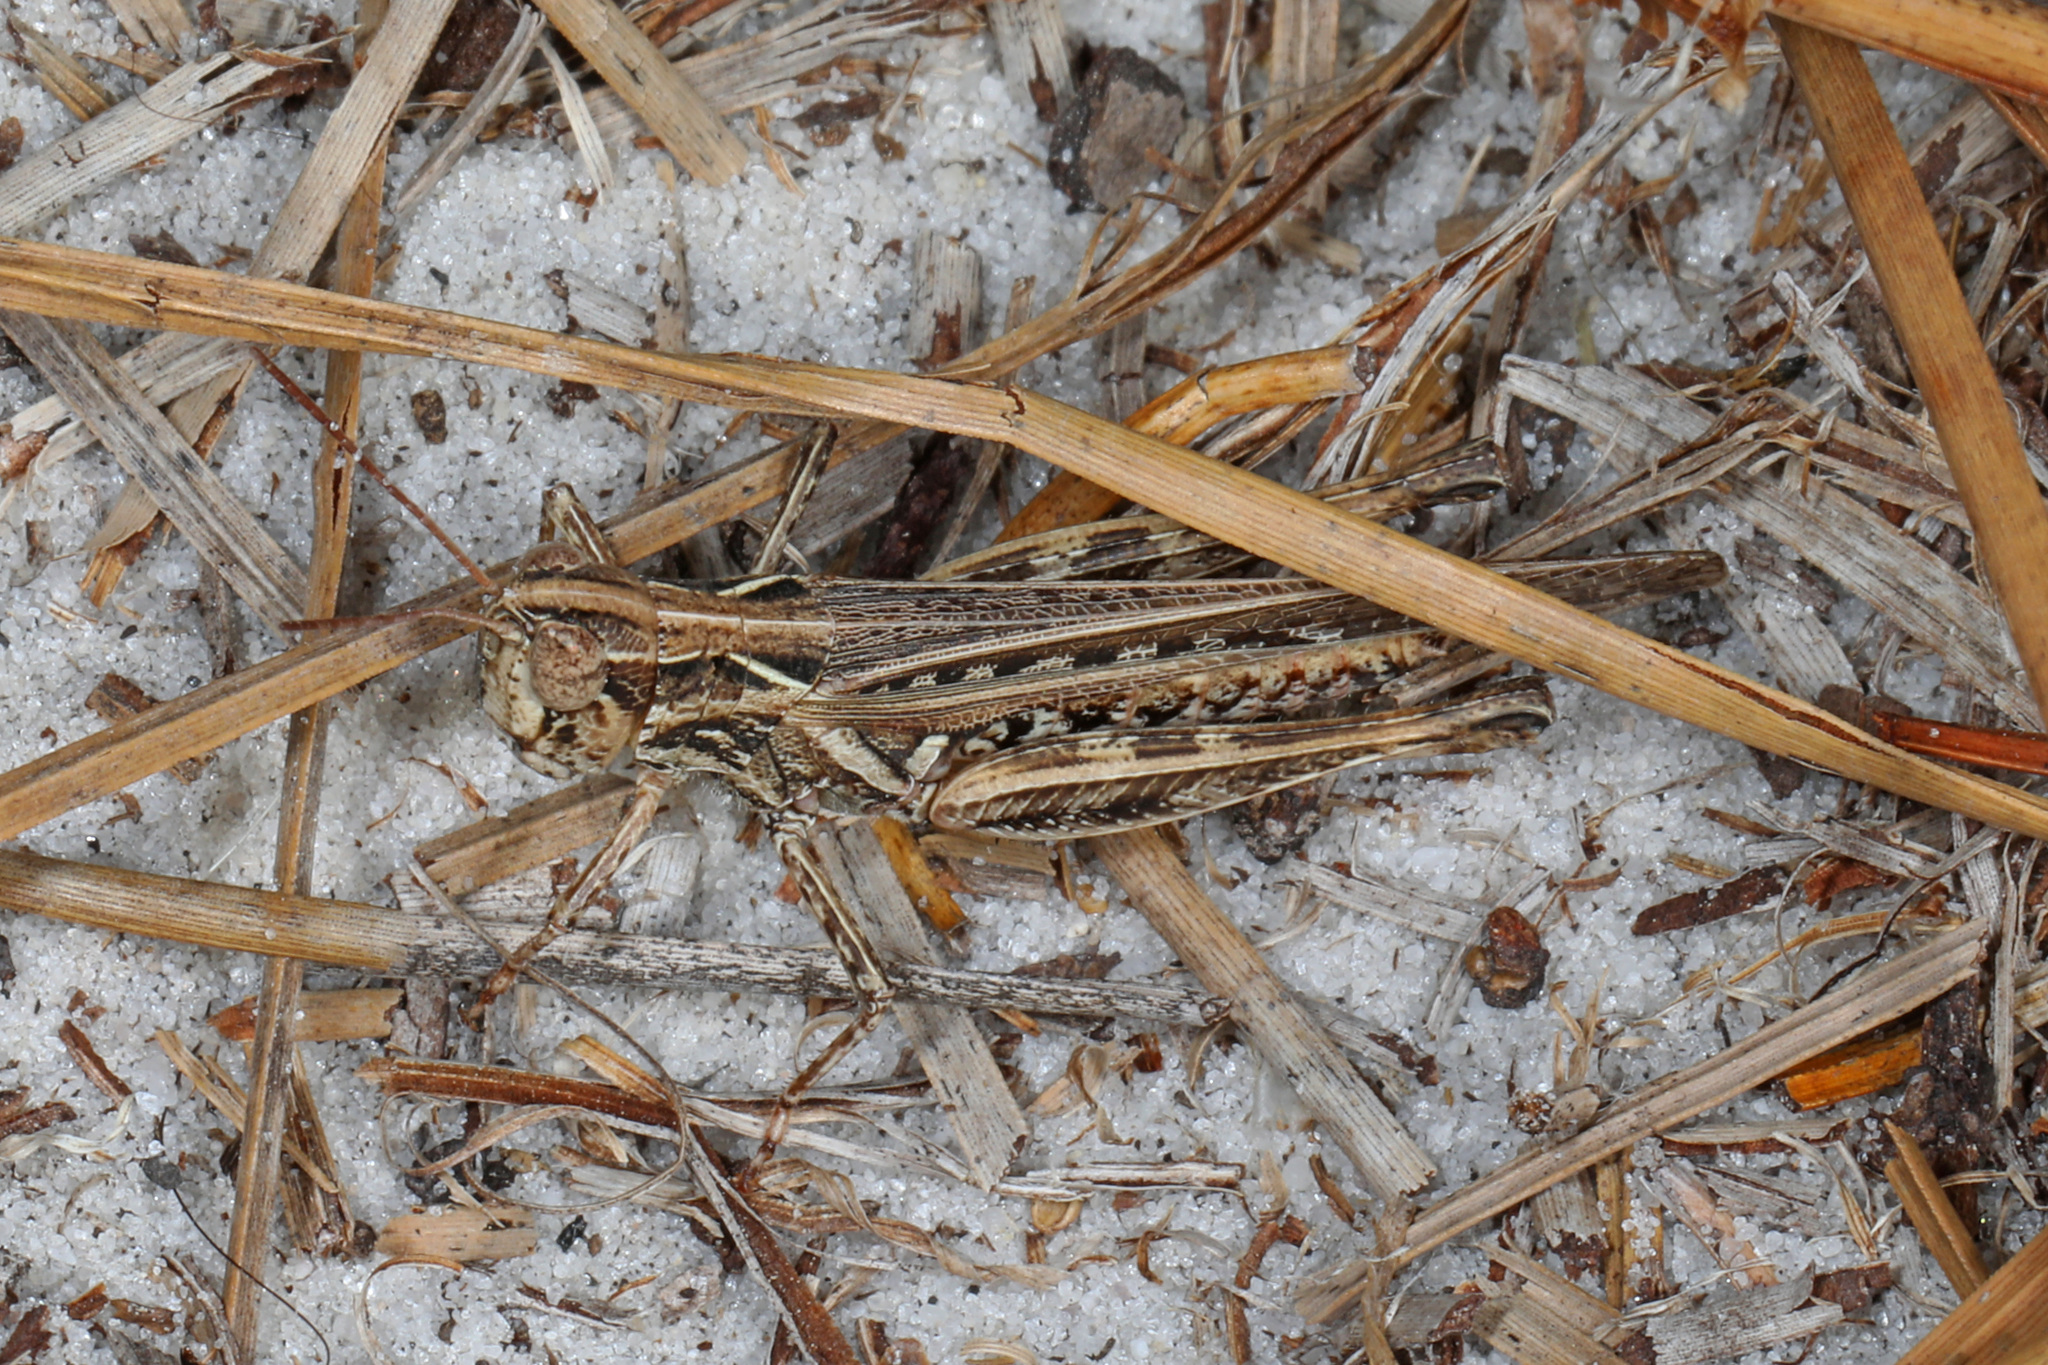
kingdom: Animalia
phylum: Arthropoda
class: Insecta
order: Orthoptera
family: Acrididae
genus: Orphulella
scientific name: Orphulella pelidna
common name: Spotted-wing grasshopper
